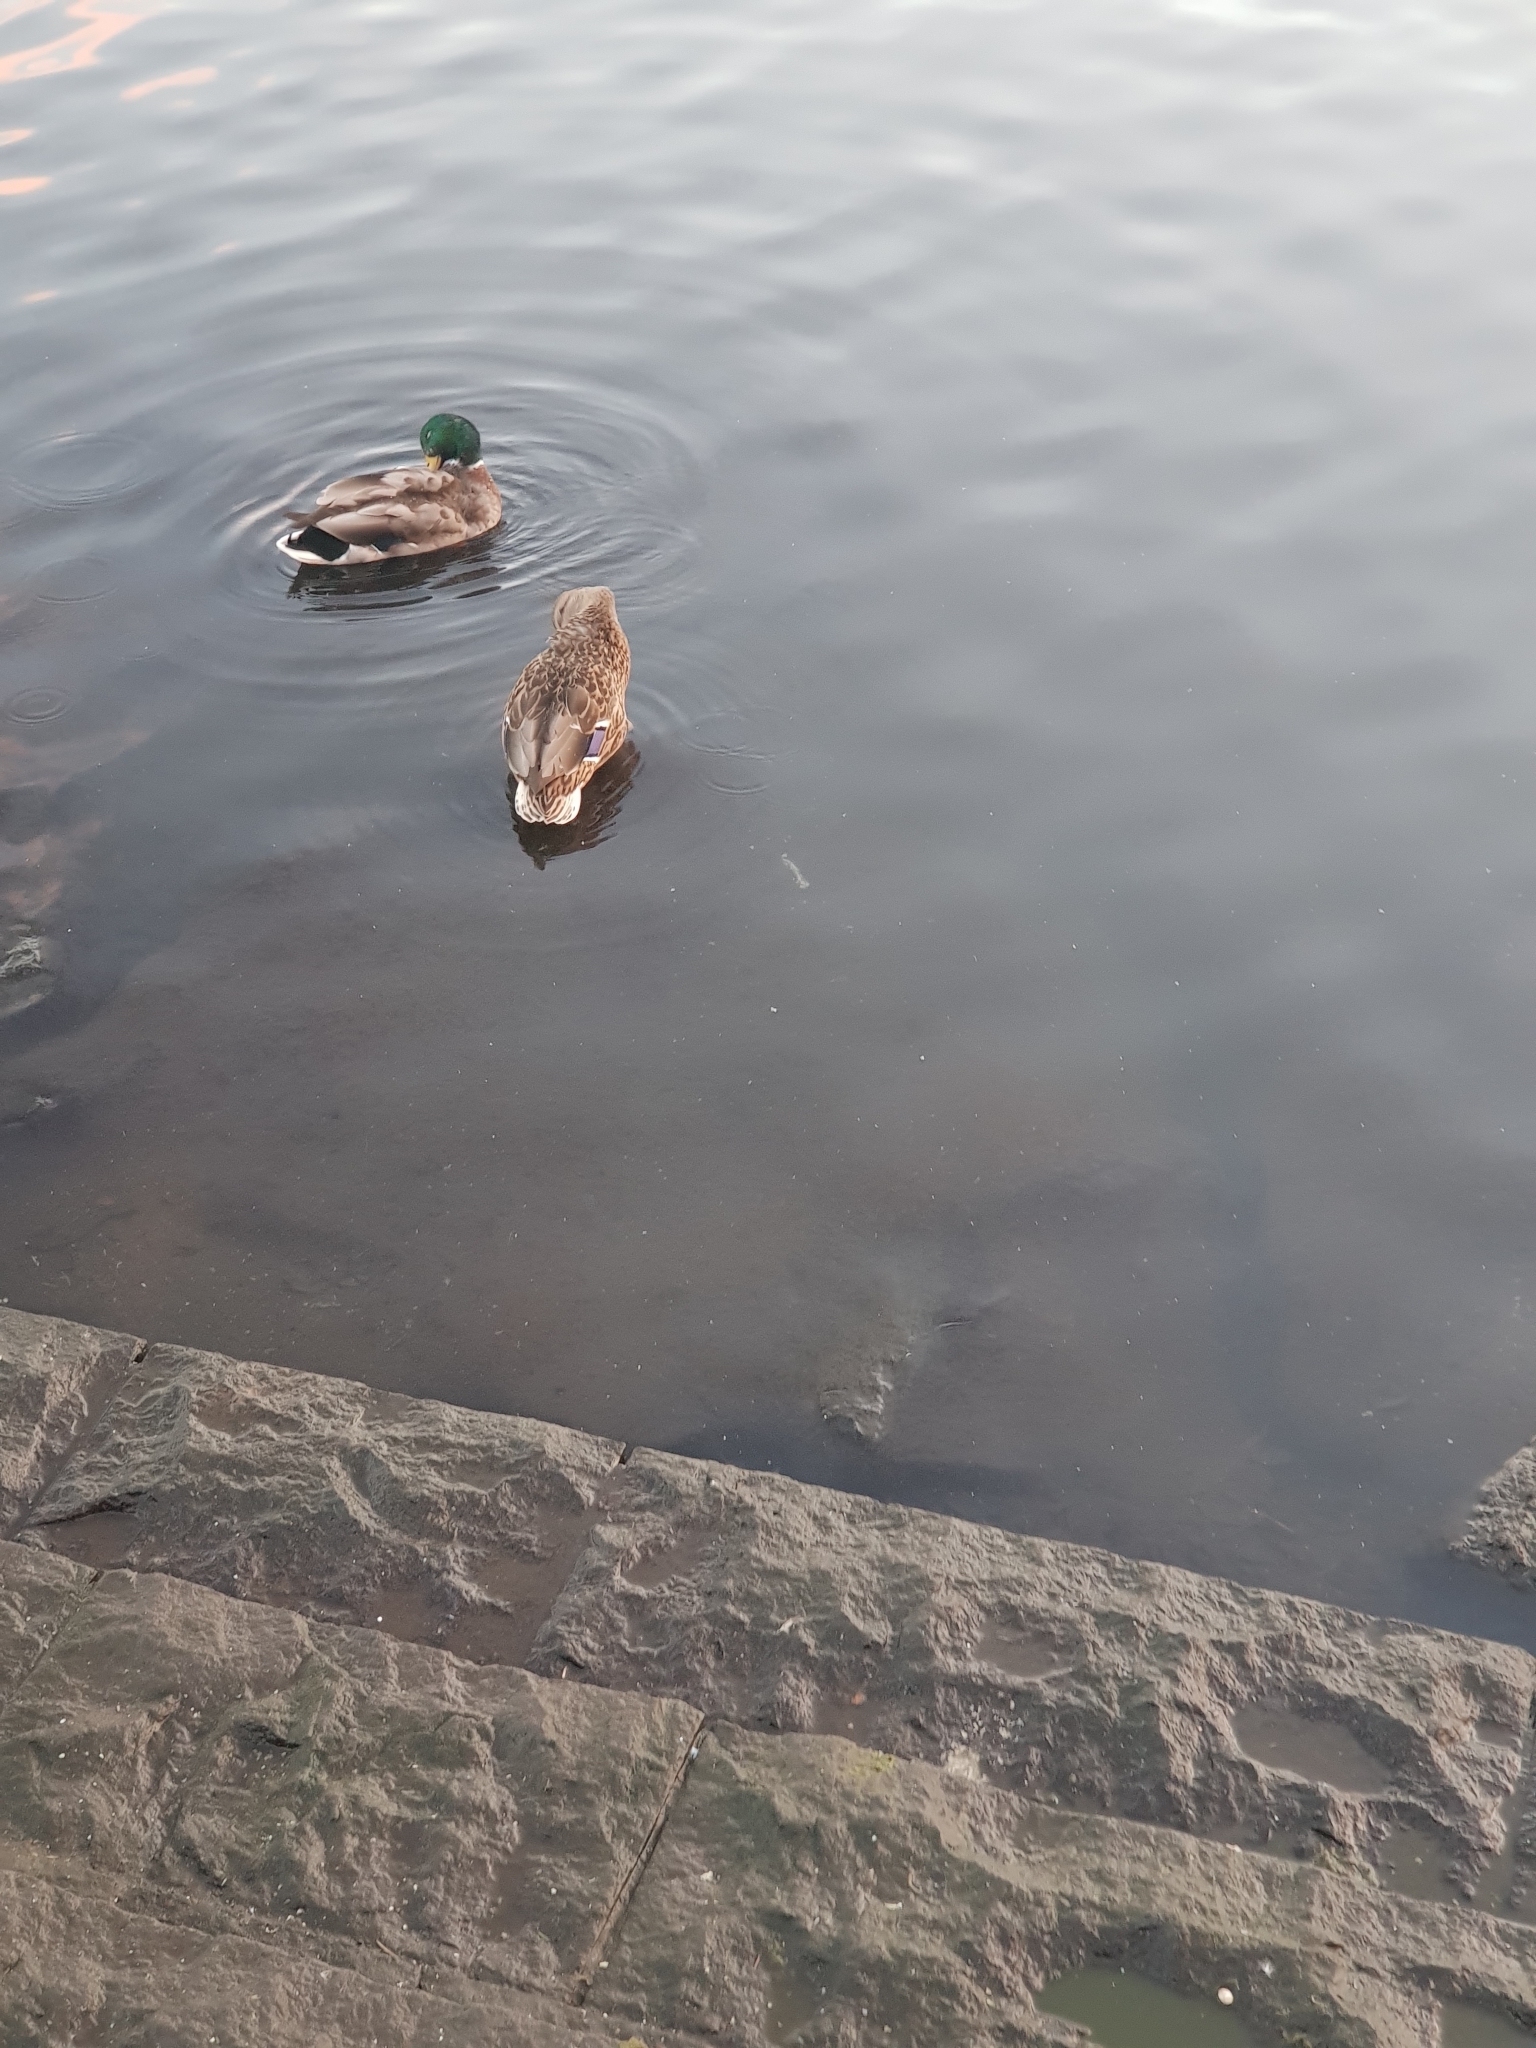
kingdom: Animalia
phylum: Chordata
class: Aves
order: Anseriformes
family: Anatidae
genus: Anas
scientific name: Anas platyrhynchos
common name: Mallard
